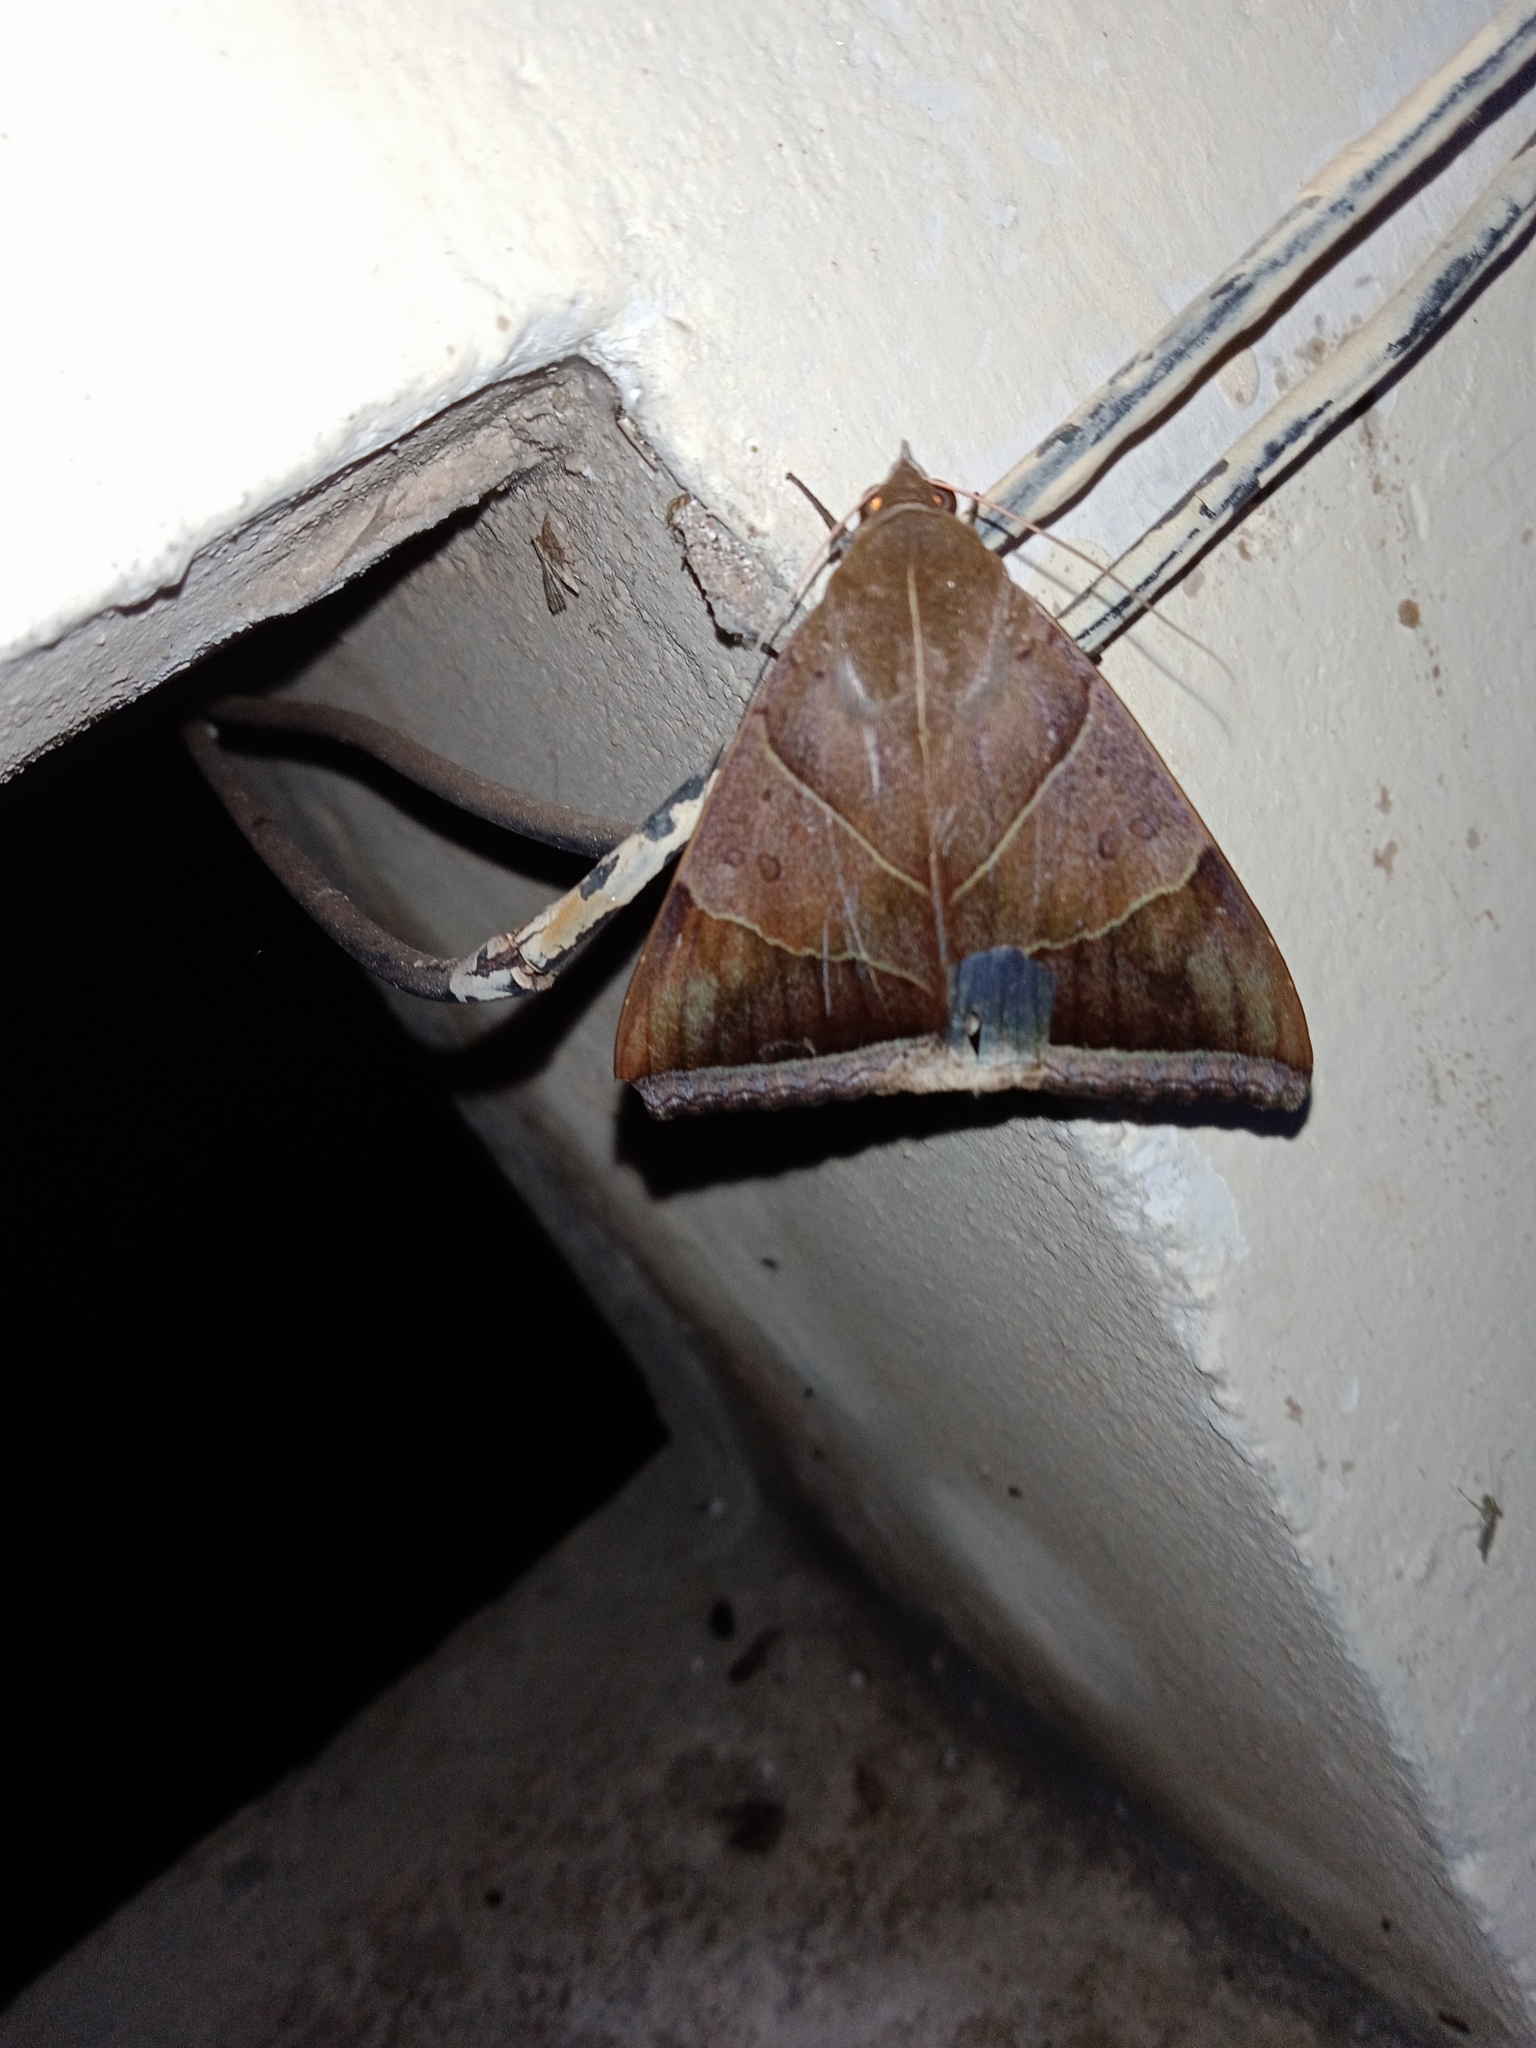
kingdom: Animalia
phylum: Arthropoda
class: Insecta
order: Lepidoptera
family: Erebidae
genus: Artena
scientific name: Artena dotata
